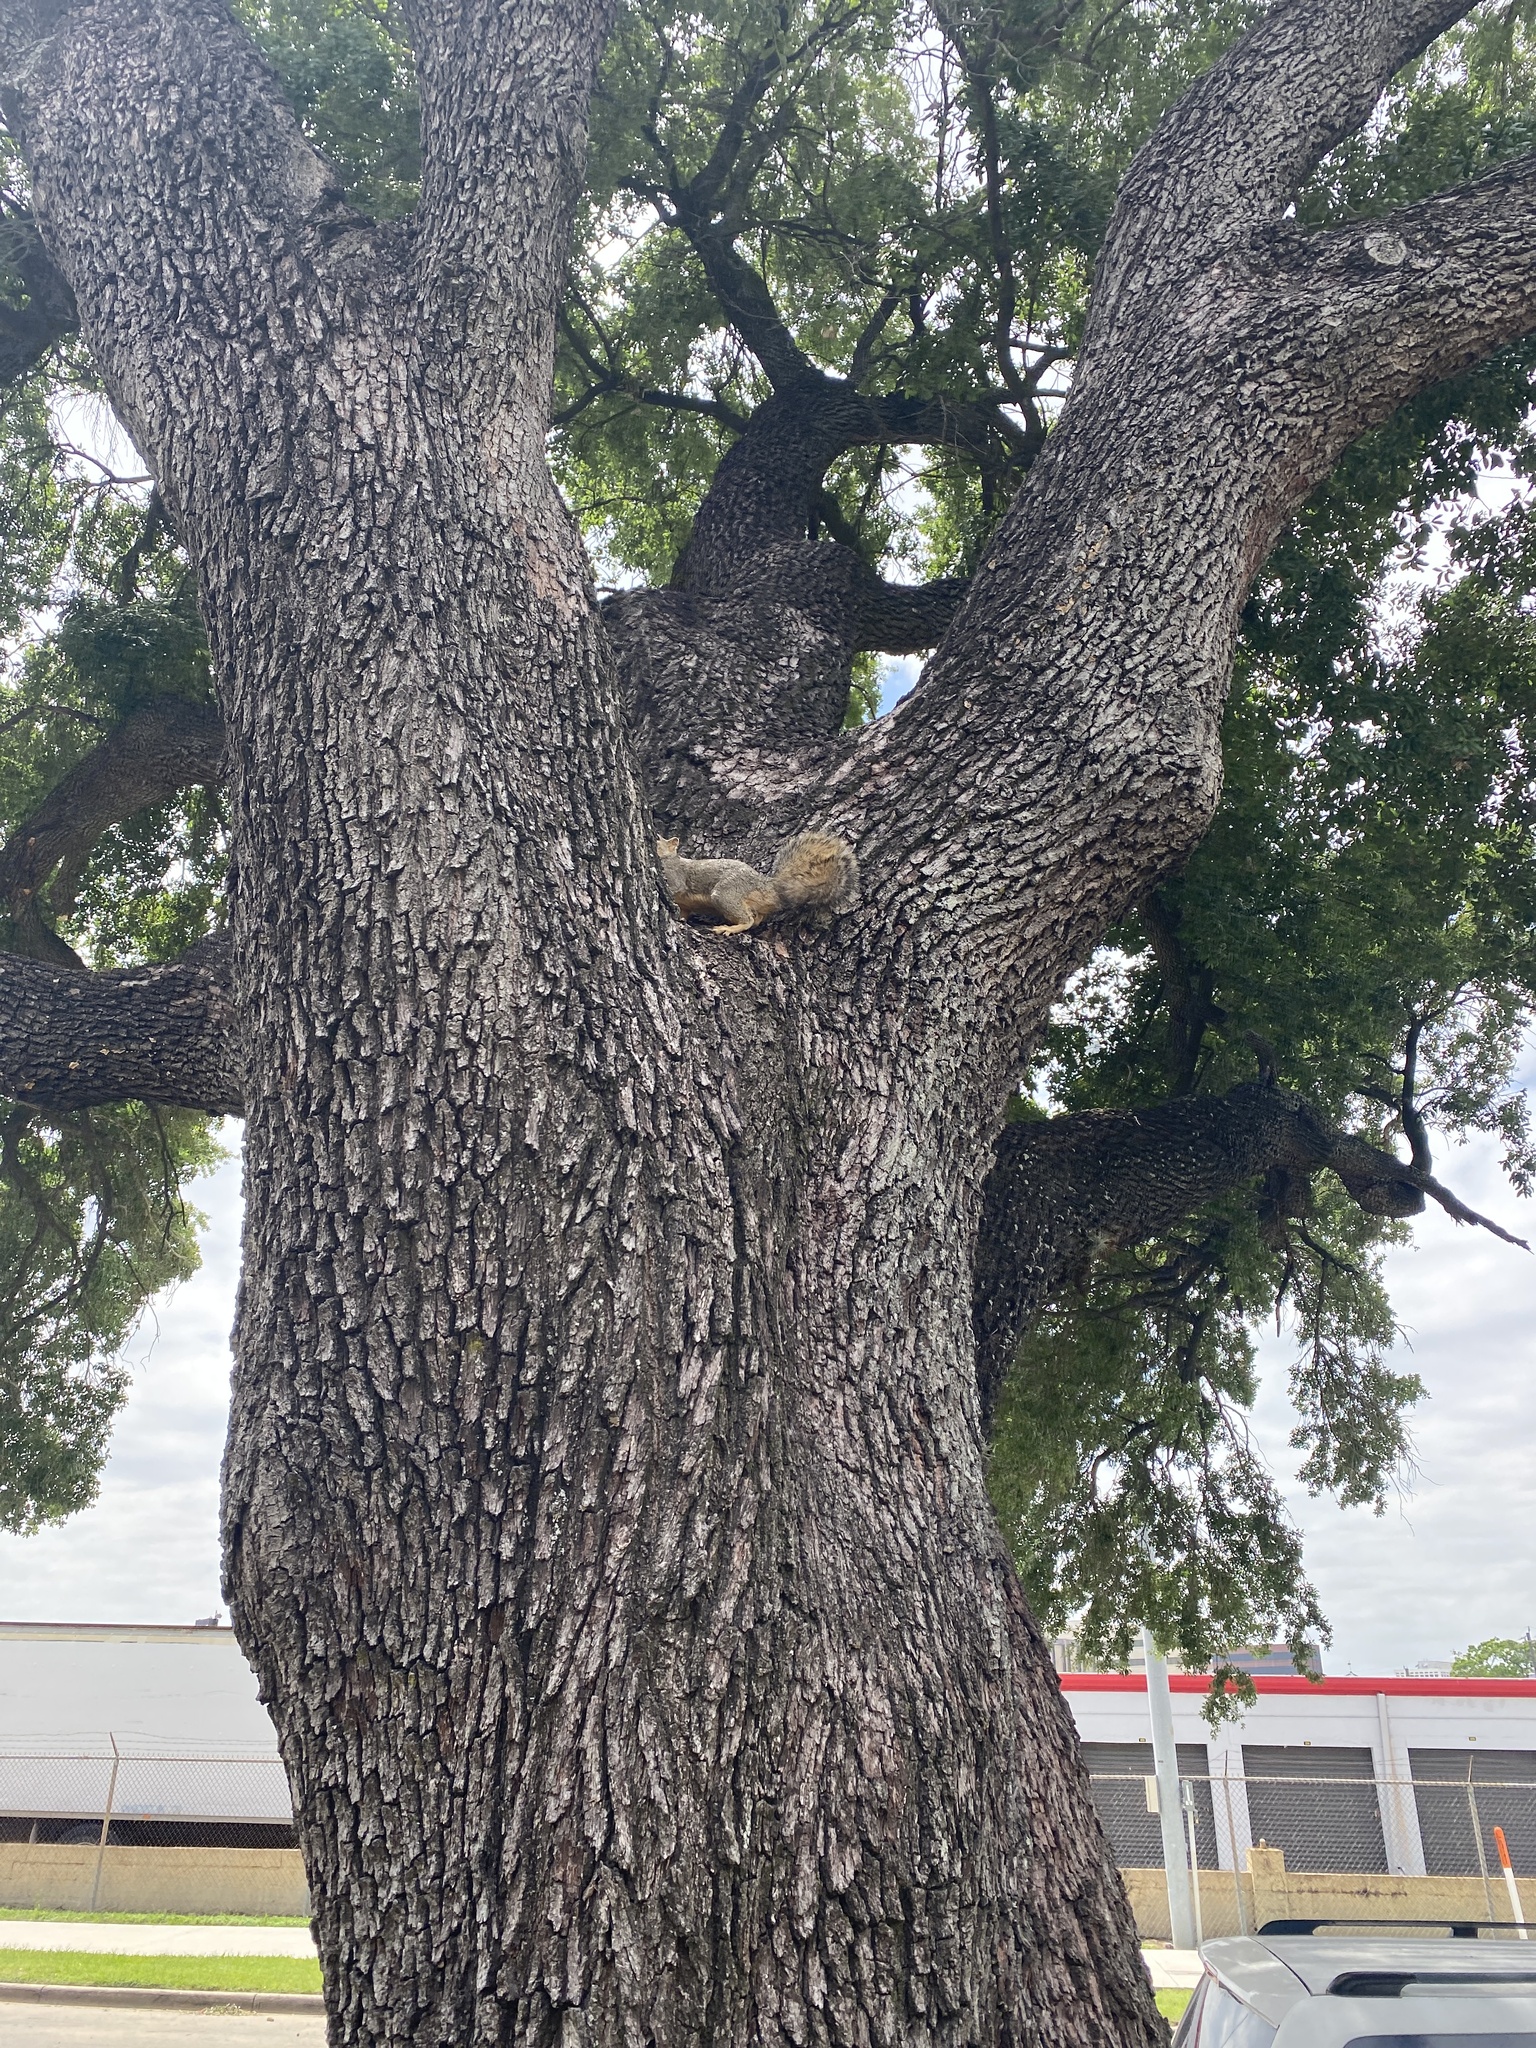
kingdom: Animalia
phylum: Chordata
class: Mammalia
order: Rodentia
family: Sciuridae
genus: Sciurus
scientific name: Sciurus niger
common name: Fox squirrel
